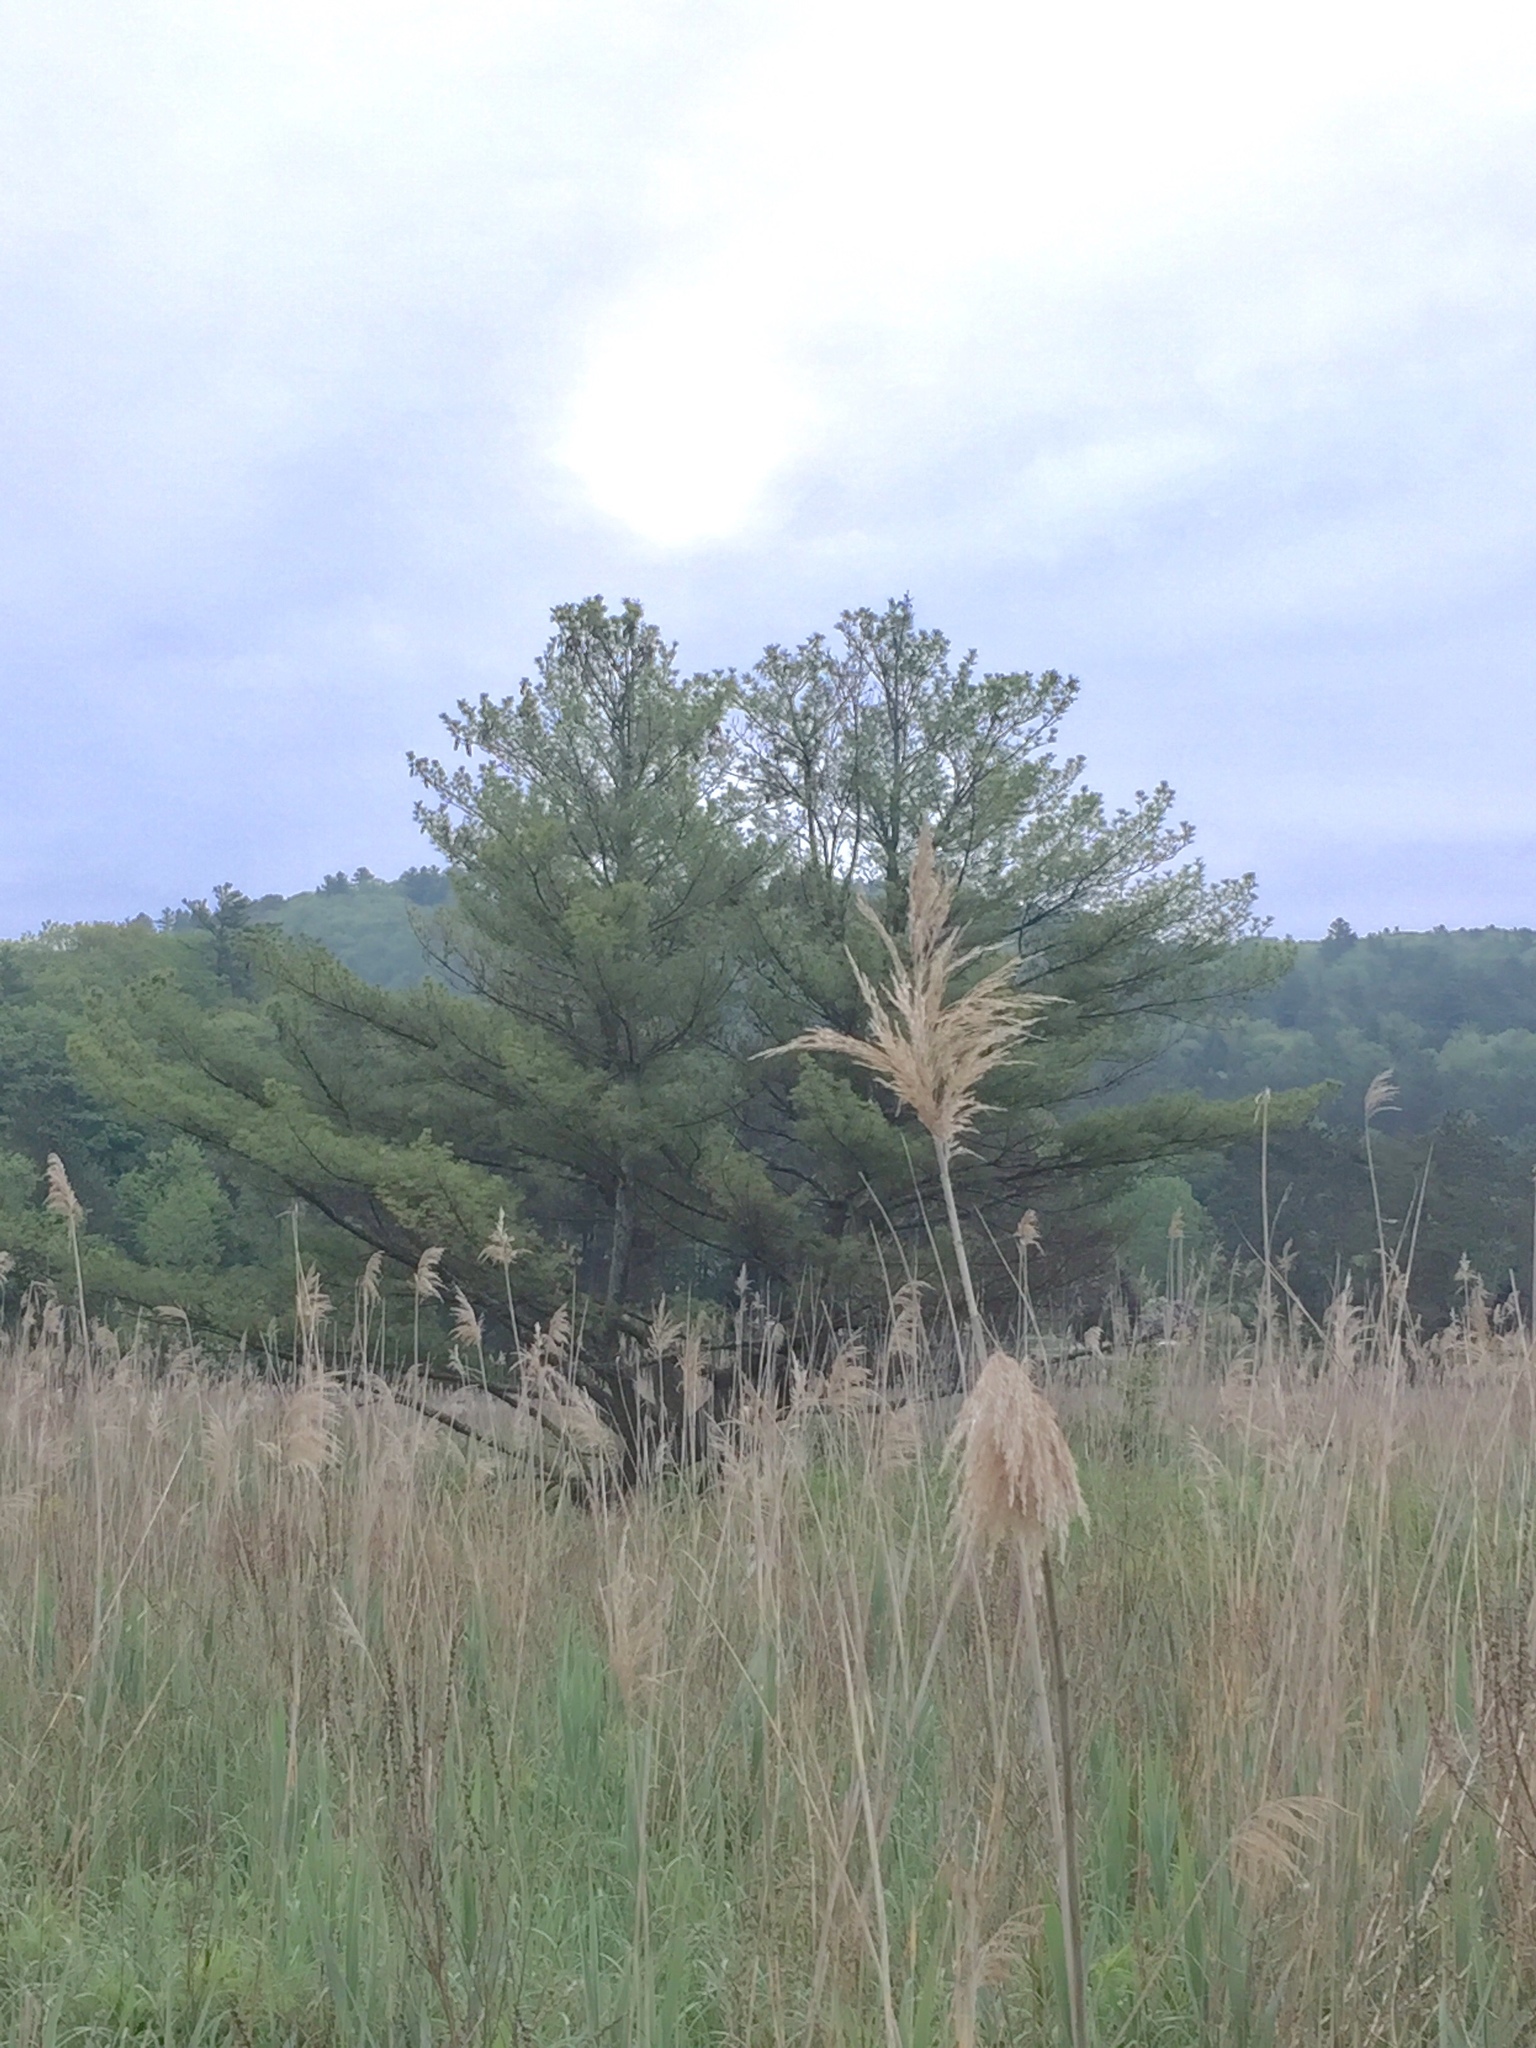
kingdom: Plantae
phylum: Tracheophyta
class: Pinopsida
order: Pinales
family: Pinaceae
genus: Pinus
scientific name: Pinus strobus
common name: Weymouth pine
